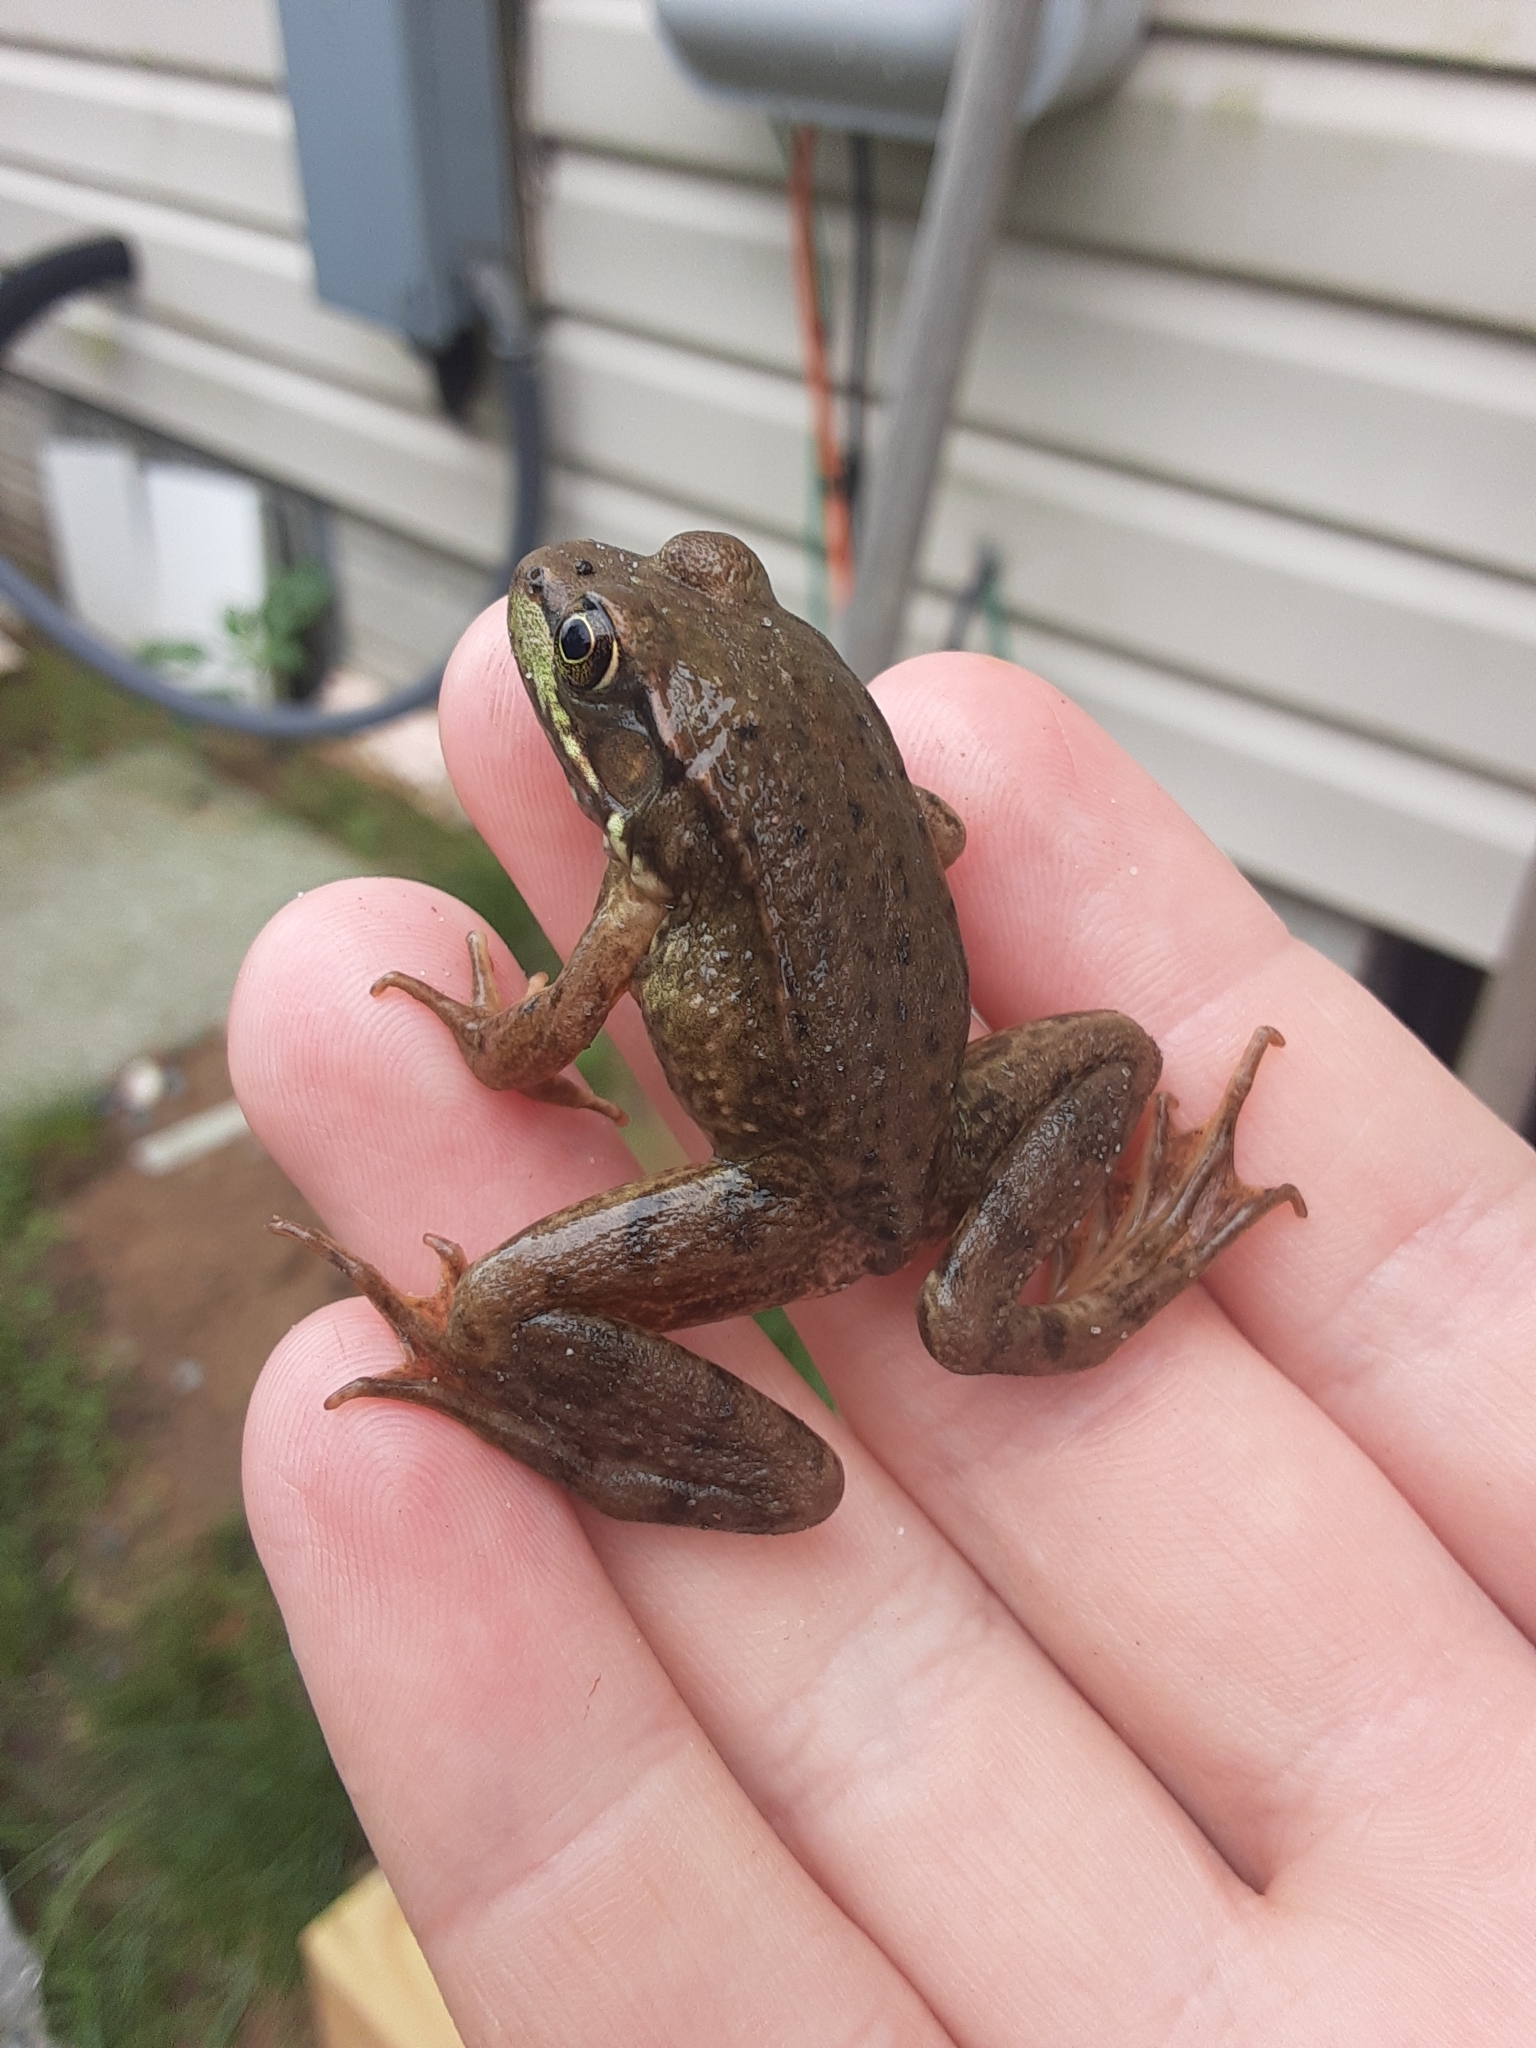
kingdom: Animalia
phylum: Chordata
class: Amphibia
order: Anura
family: Ranidae
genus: Lithobates
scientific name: Lithobates clamitans
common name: Green frog
